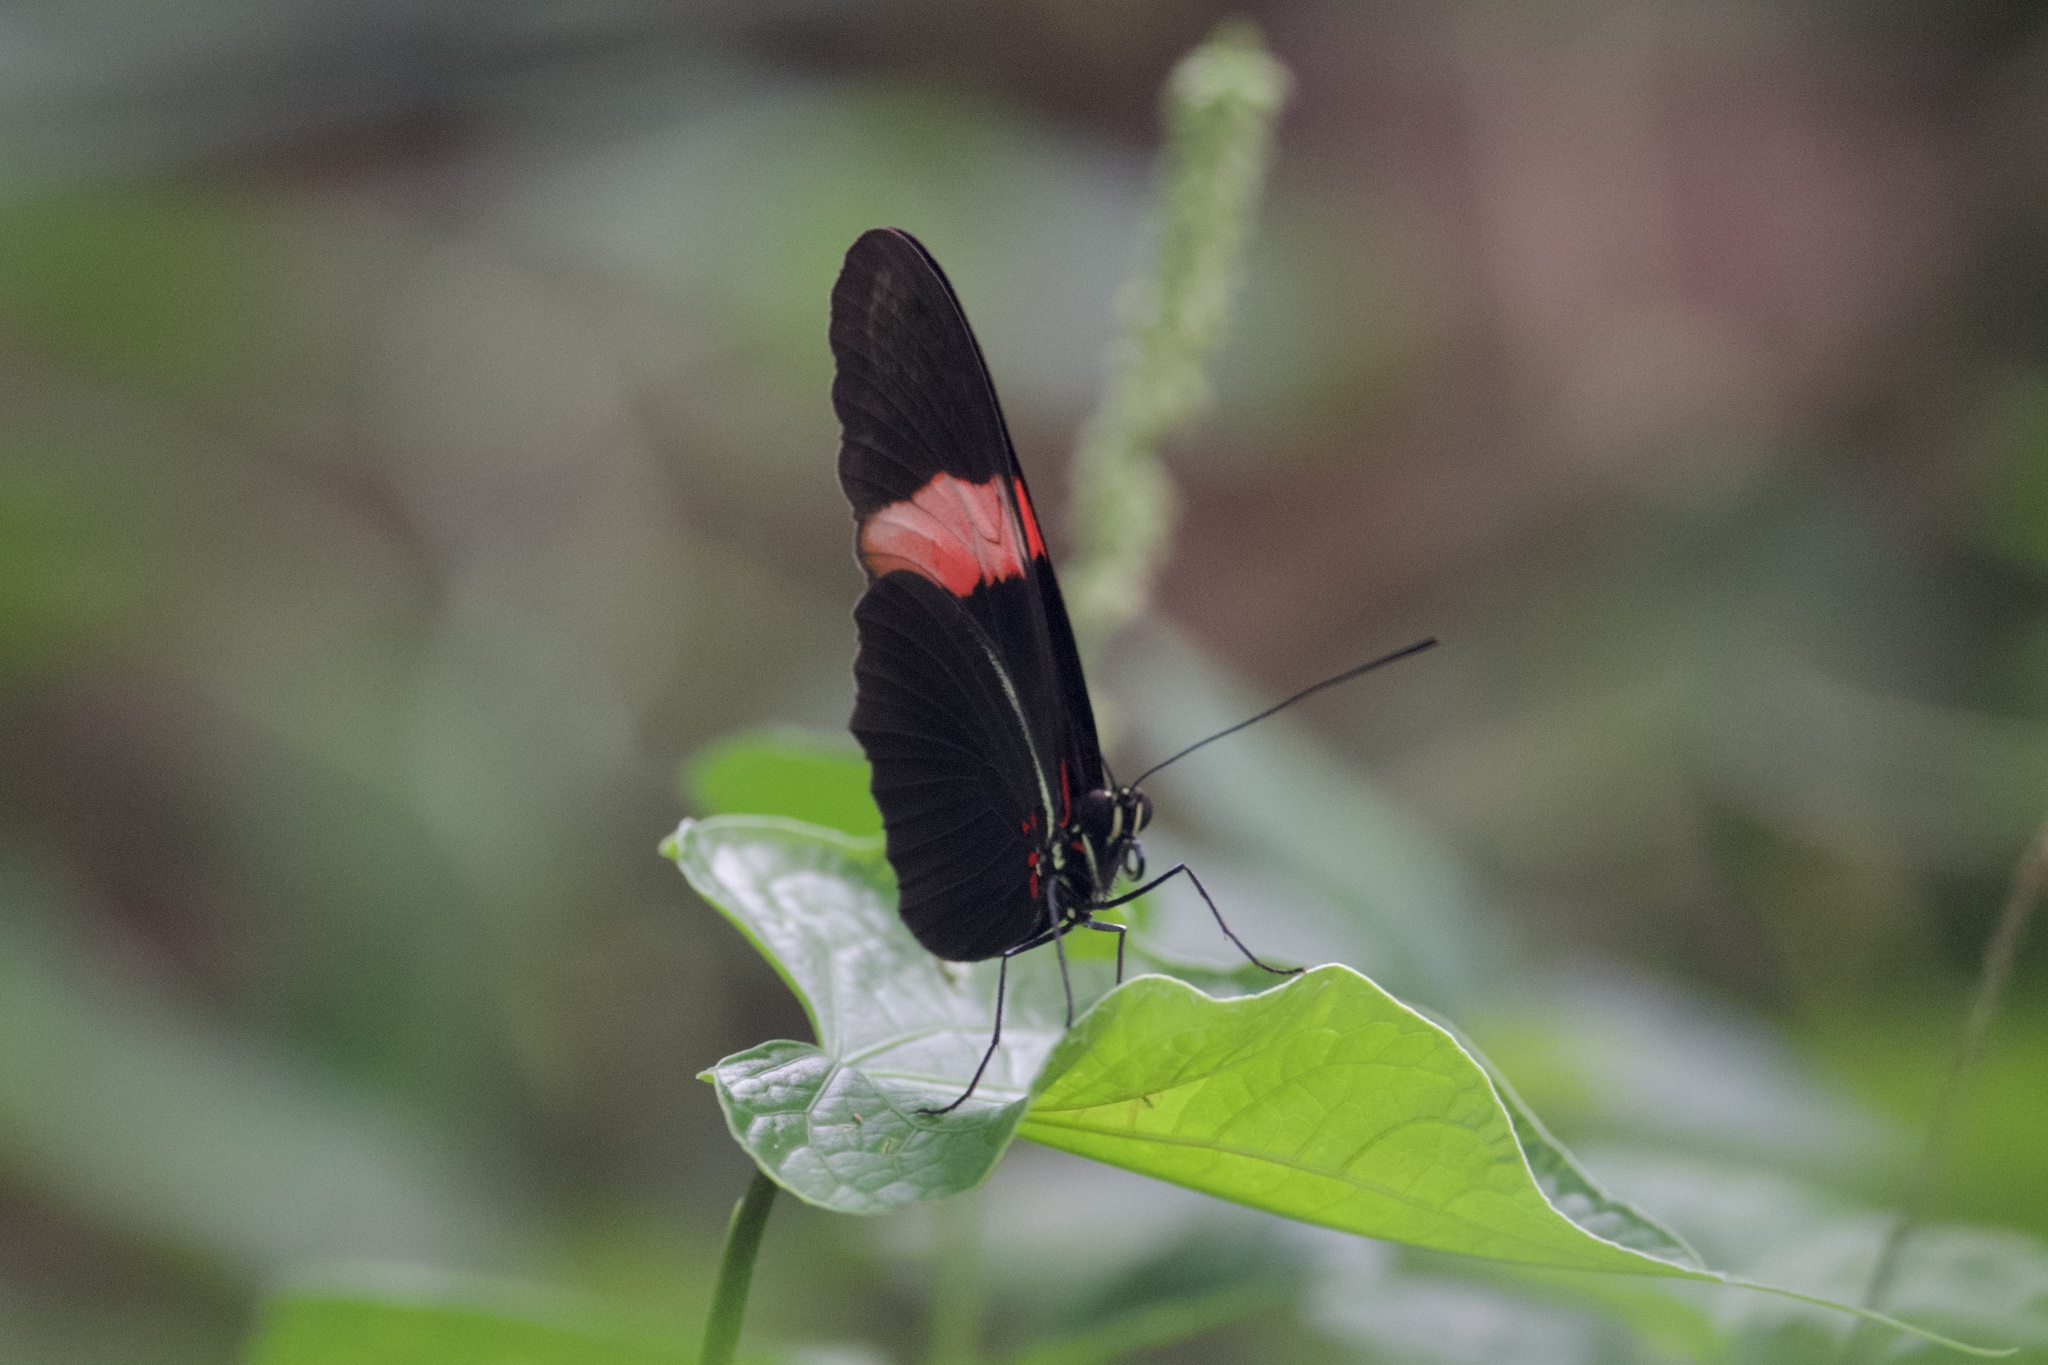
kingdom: Animalia
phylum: Arthropoda
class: Insecta
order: Lepidoptera
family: Nymphalidae
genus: Heliconius
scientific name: Heliconius erato
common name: Common patch longwing
